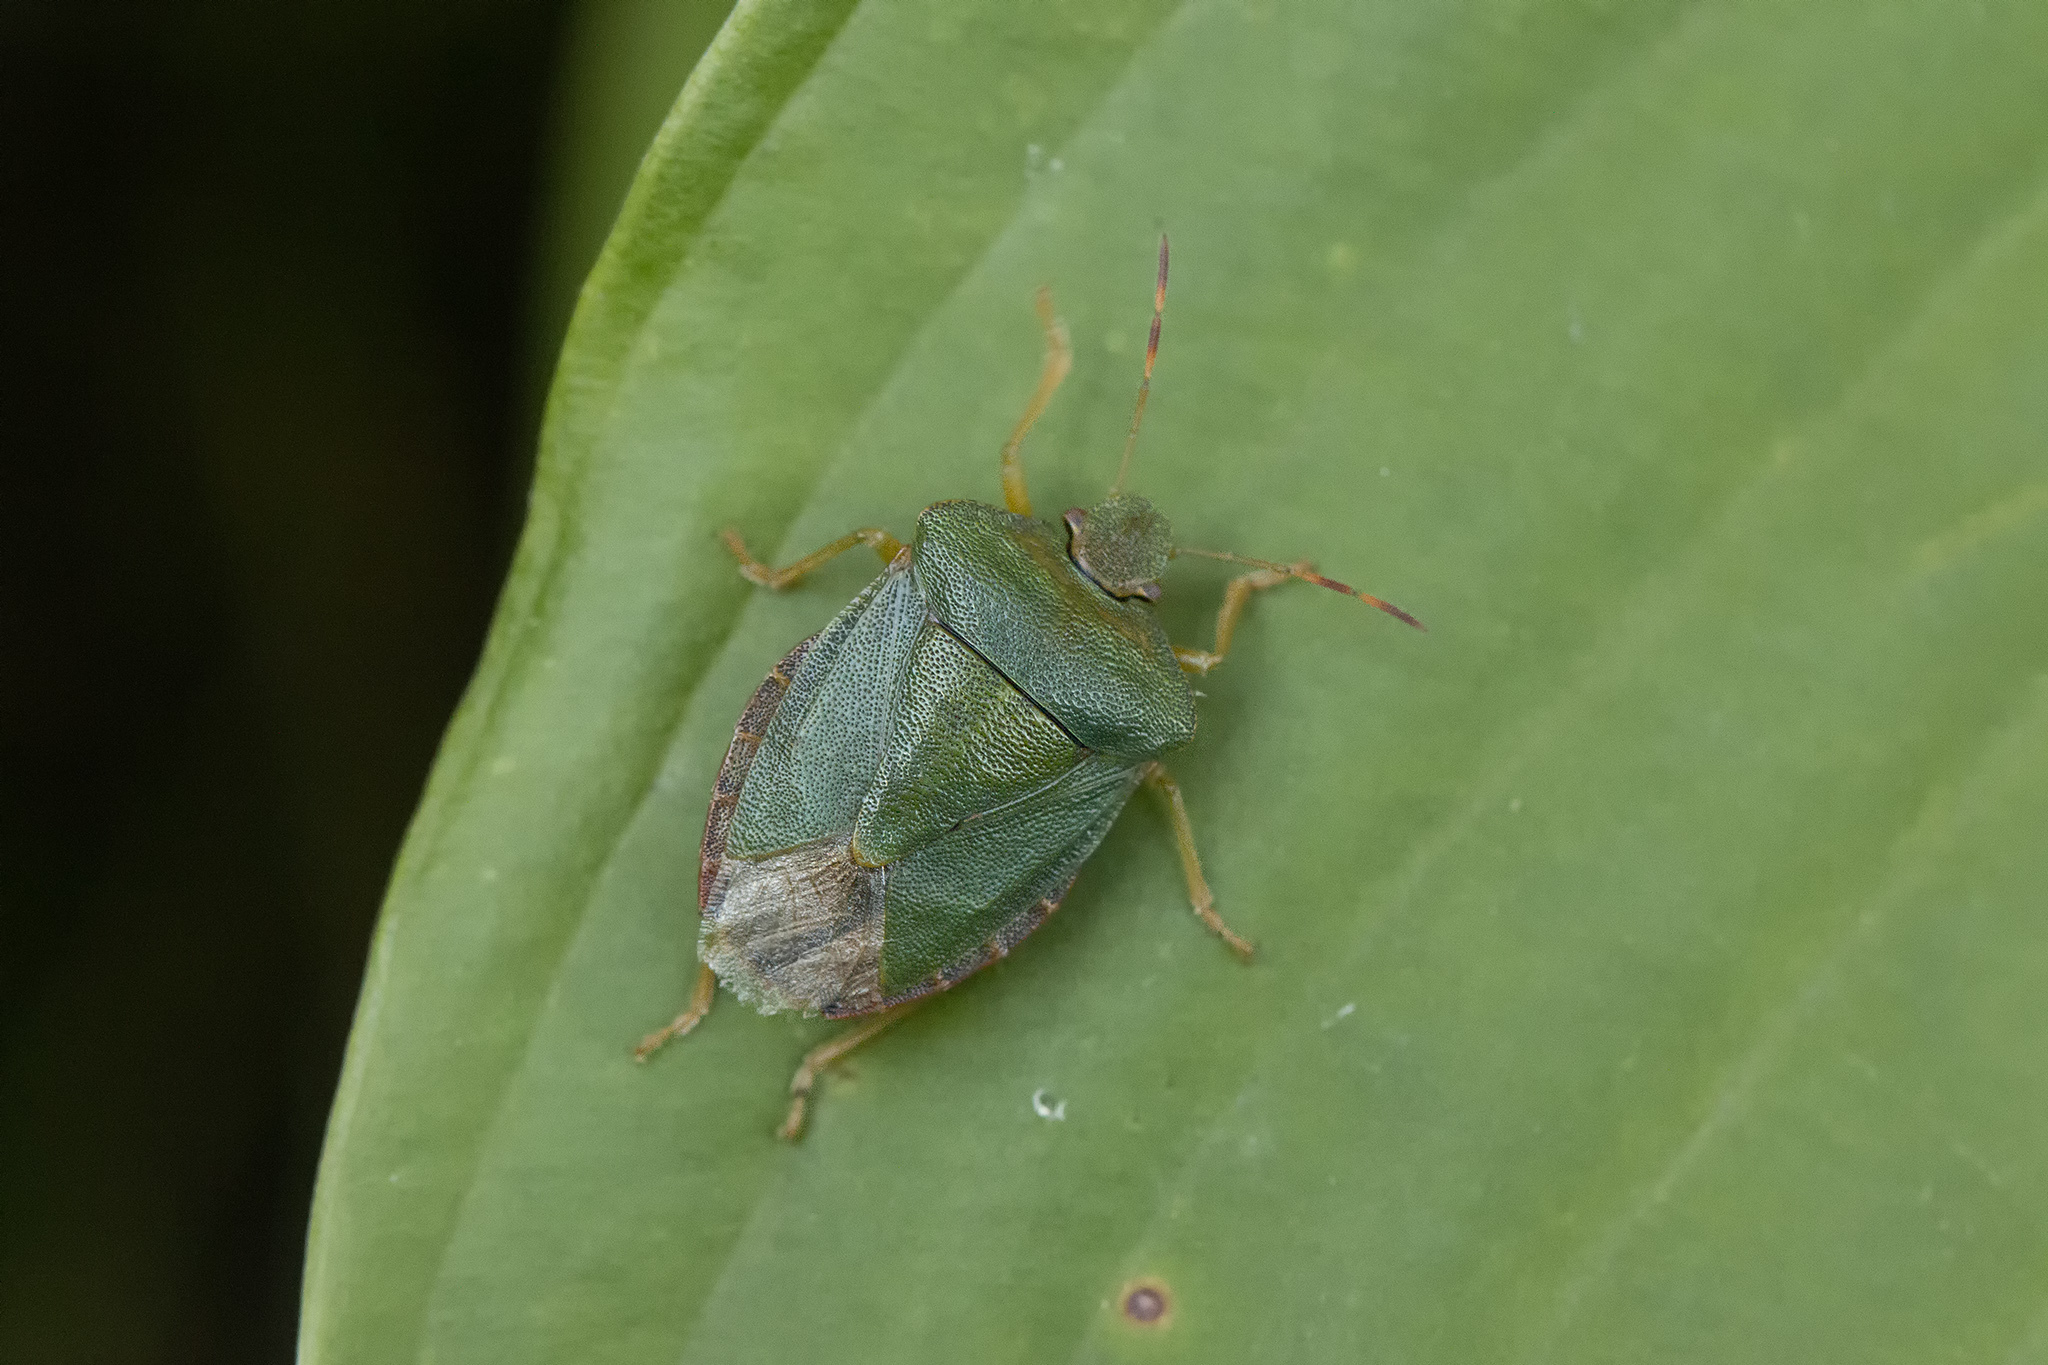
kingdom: Animalia
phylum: Arthropoda
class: Insecta
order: Hemiptera
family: Pentatomidae
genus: Palomena
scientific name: Palomena prasina
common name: Green shieldbug
